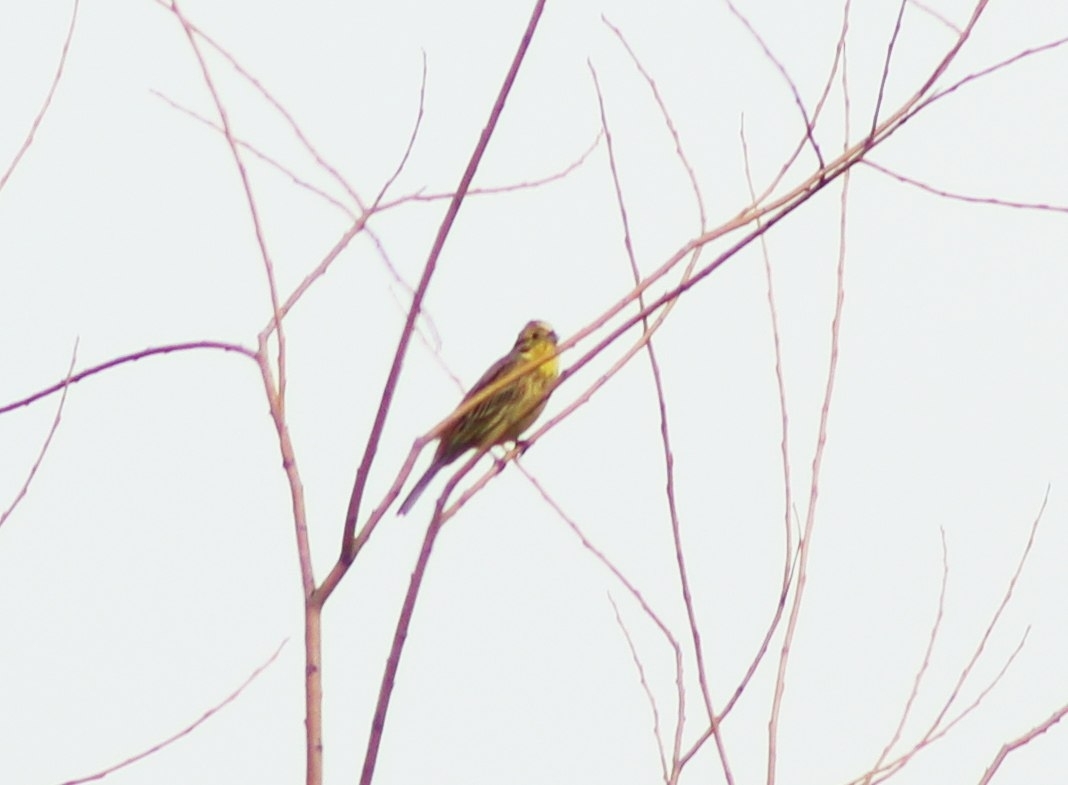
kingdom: Animalia
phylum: Chordata
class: Aves
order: Passeriformes
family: Emberizidae
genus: Emberiza
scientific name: Emberiza citrinella
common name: Yellowhammer
